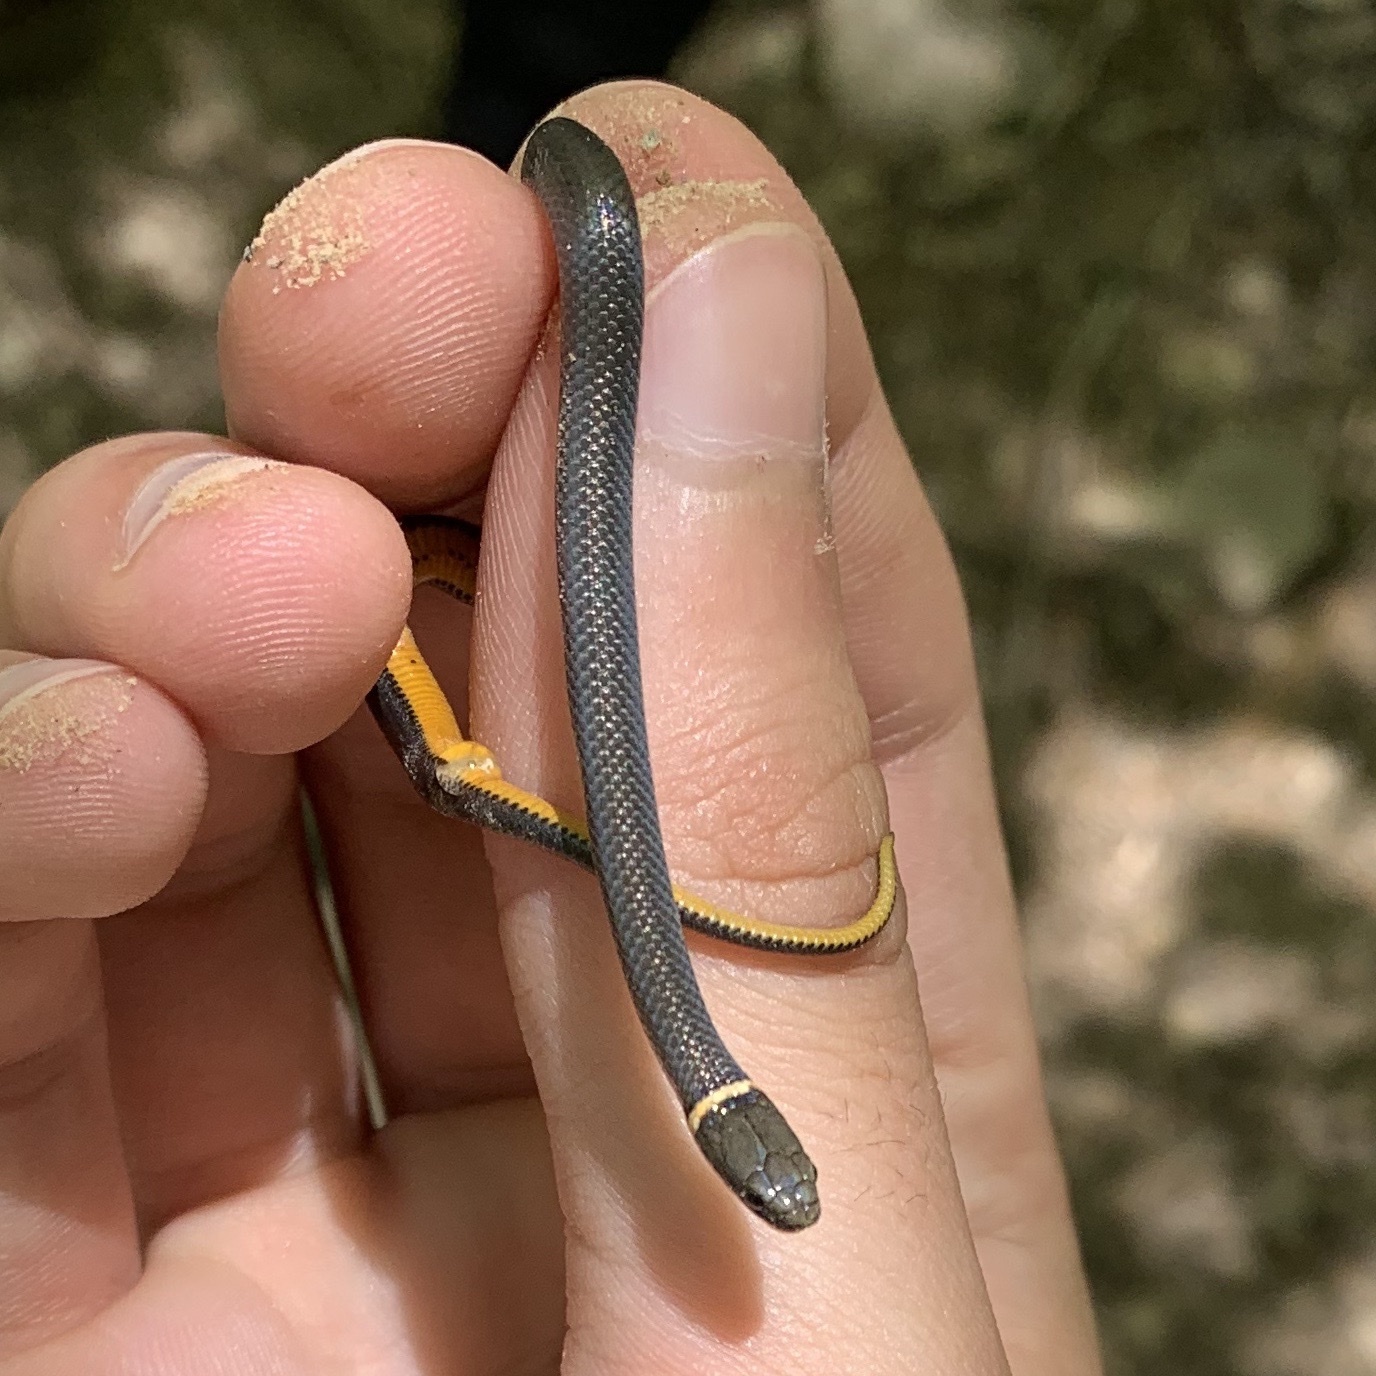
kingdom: Animalia
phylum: Chordata
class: Squamata
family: Colubridae
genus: Diadophis
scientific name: Diadophis punctatus
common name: Ringneck snake
